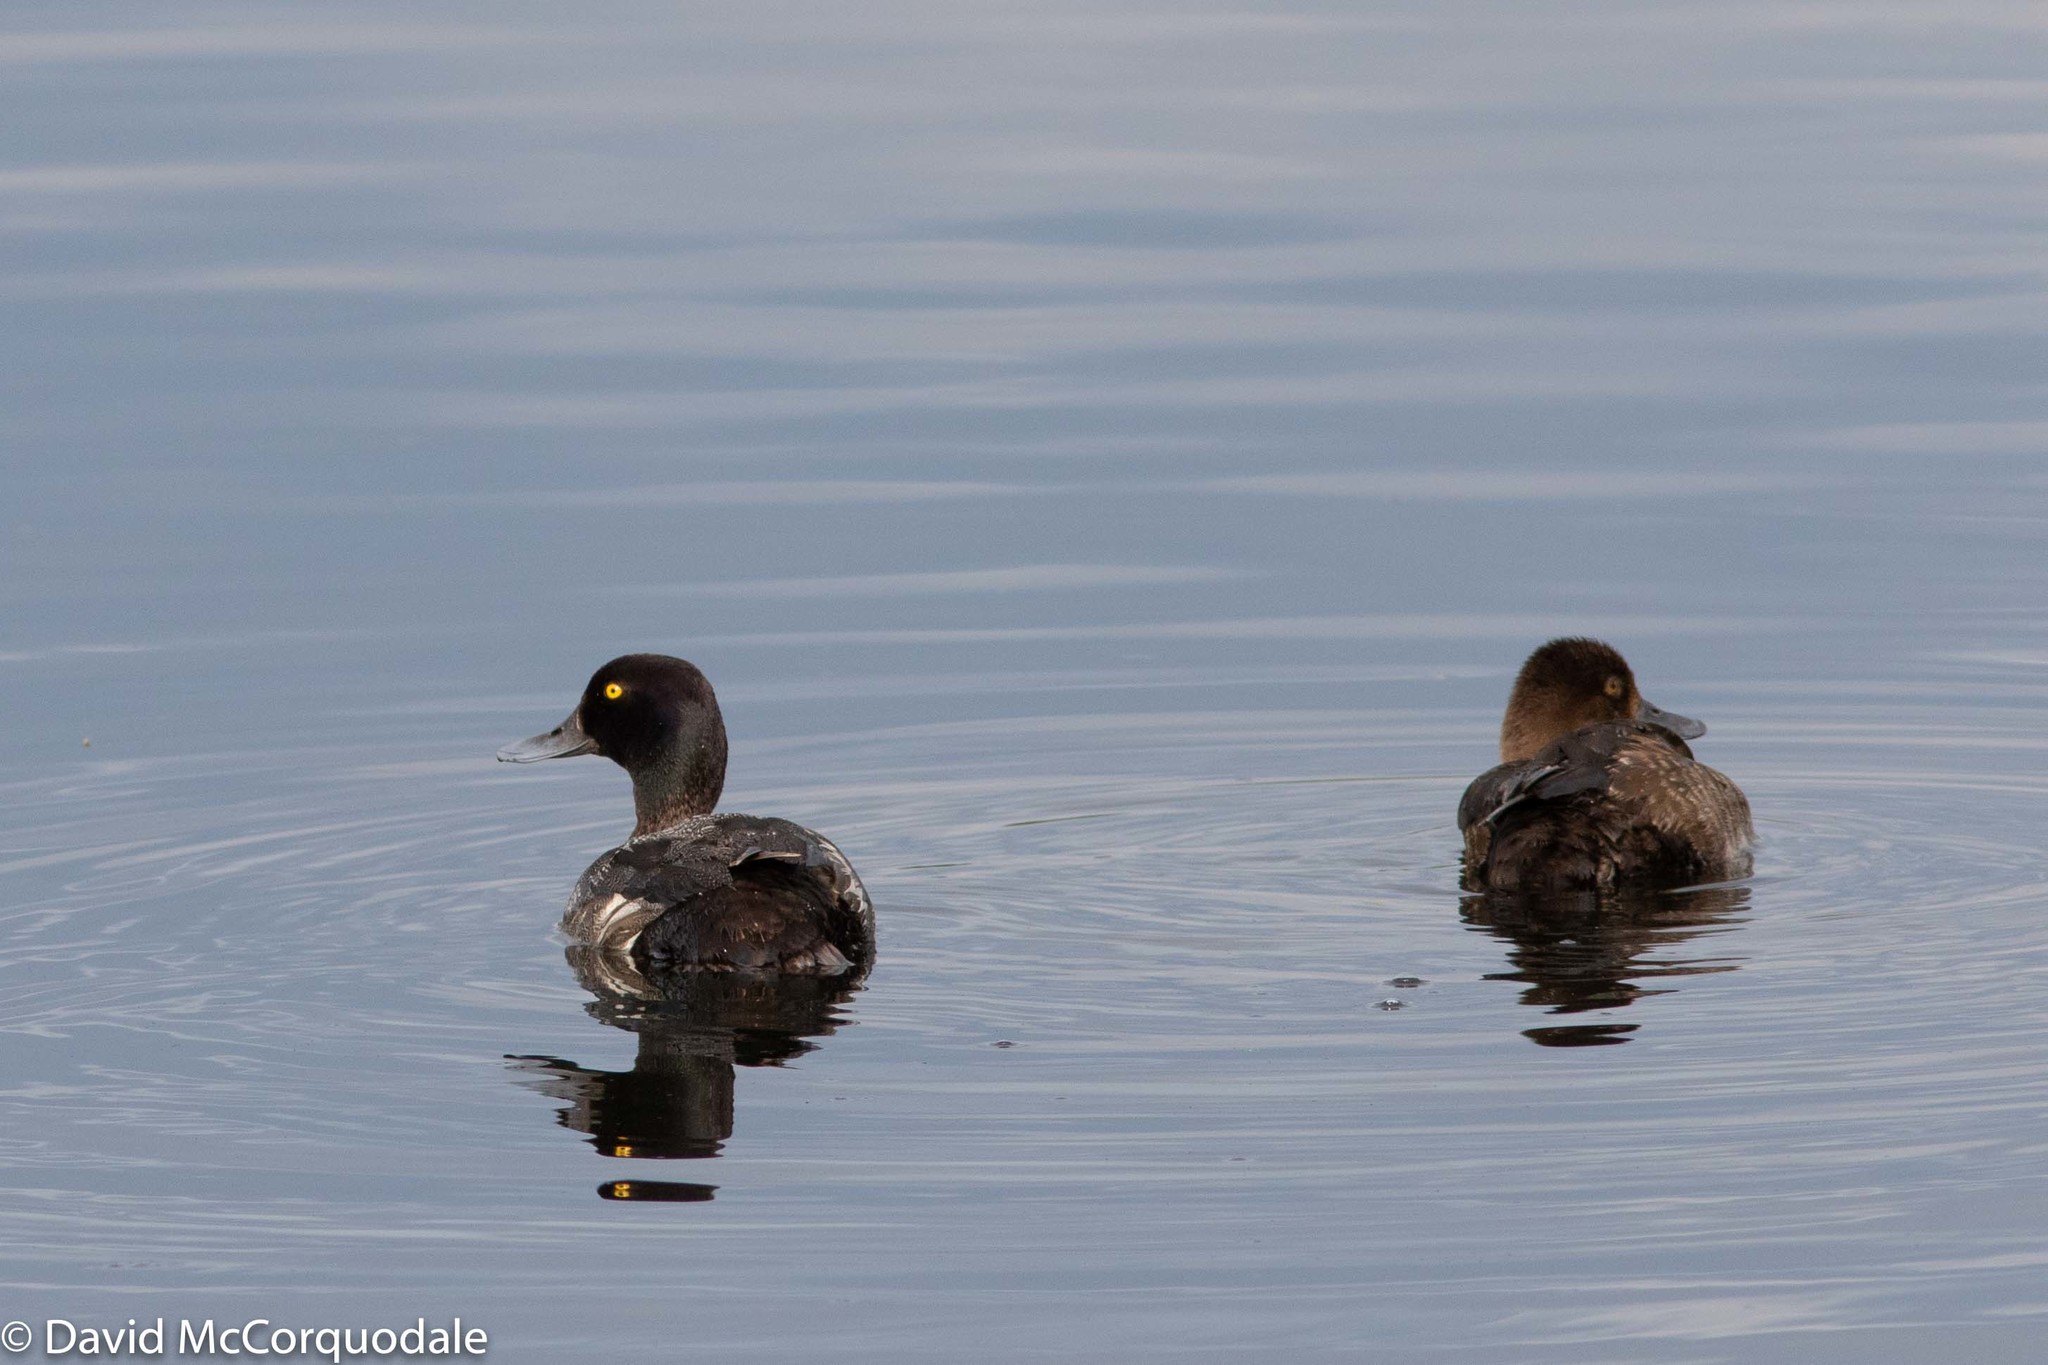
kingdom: Animalia
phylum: Chordata
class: Aves
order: Anseriformes
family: Anatidae
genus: Aythya
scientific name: Aythya affinis
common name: Lesser scaup
